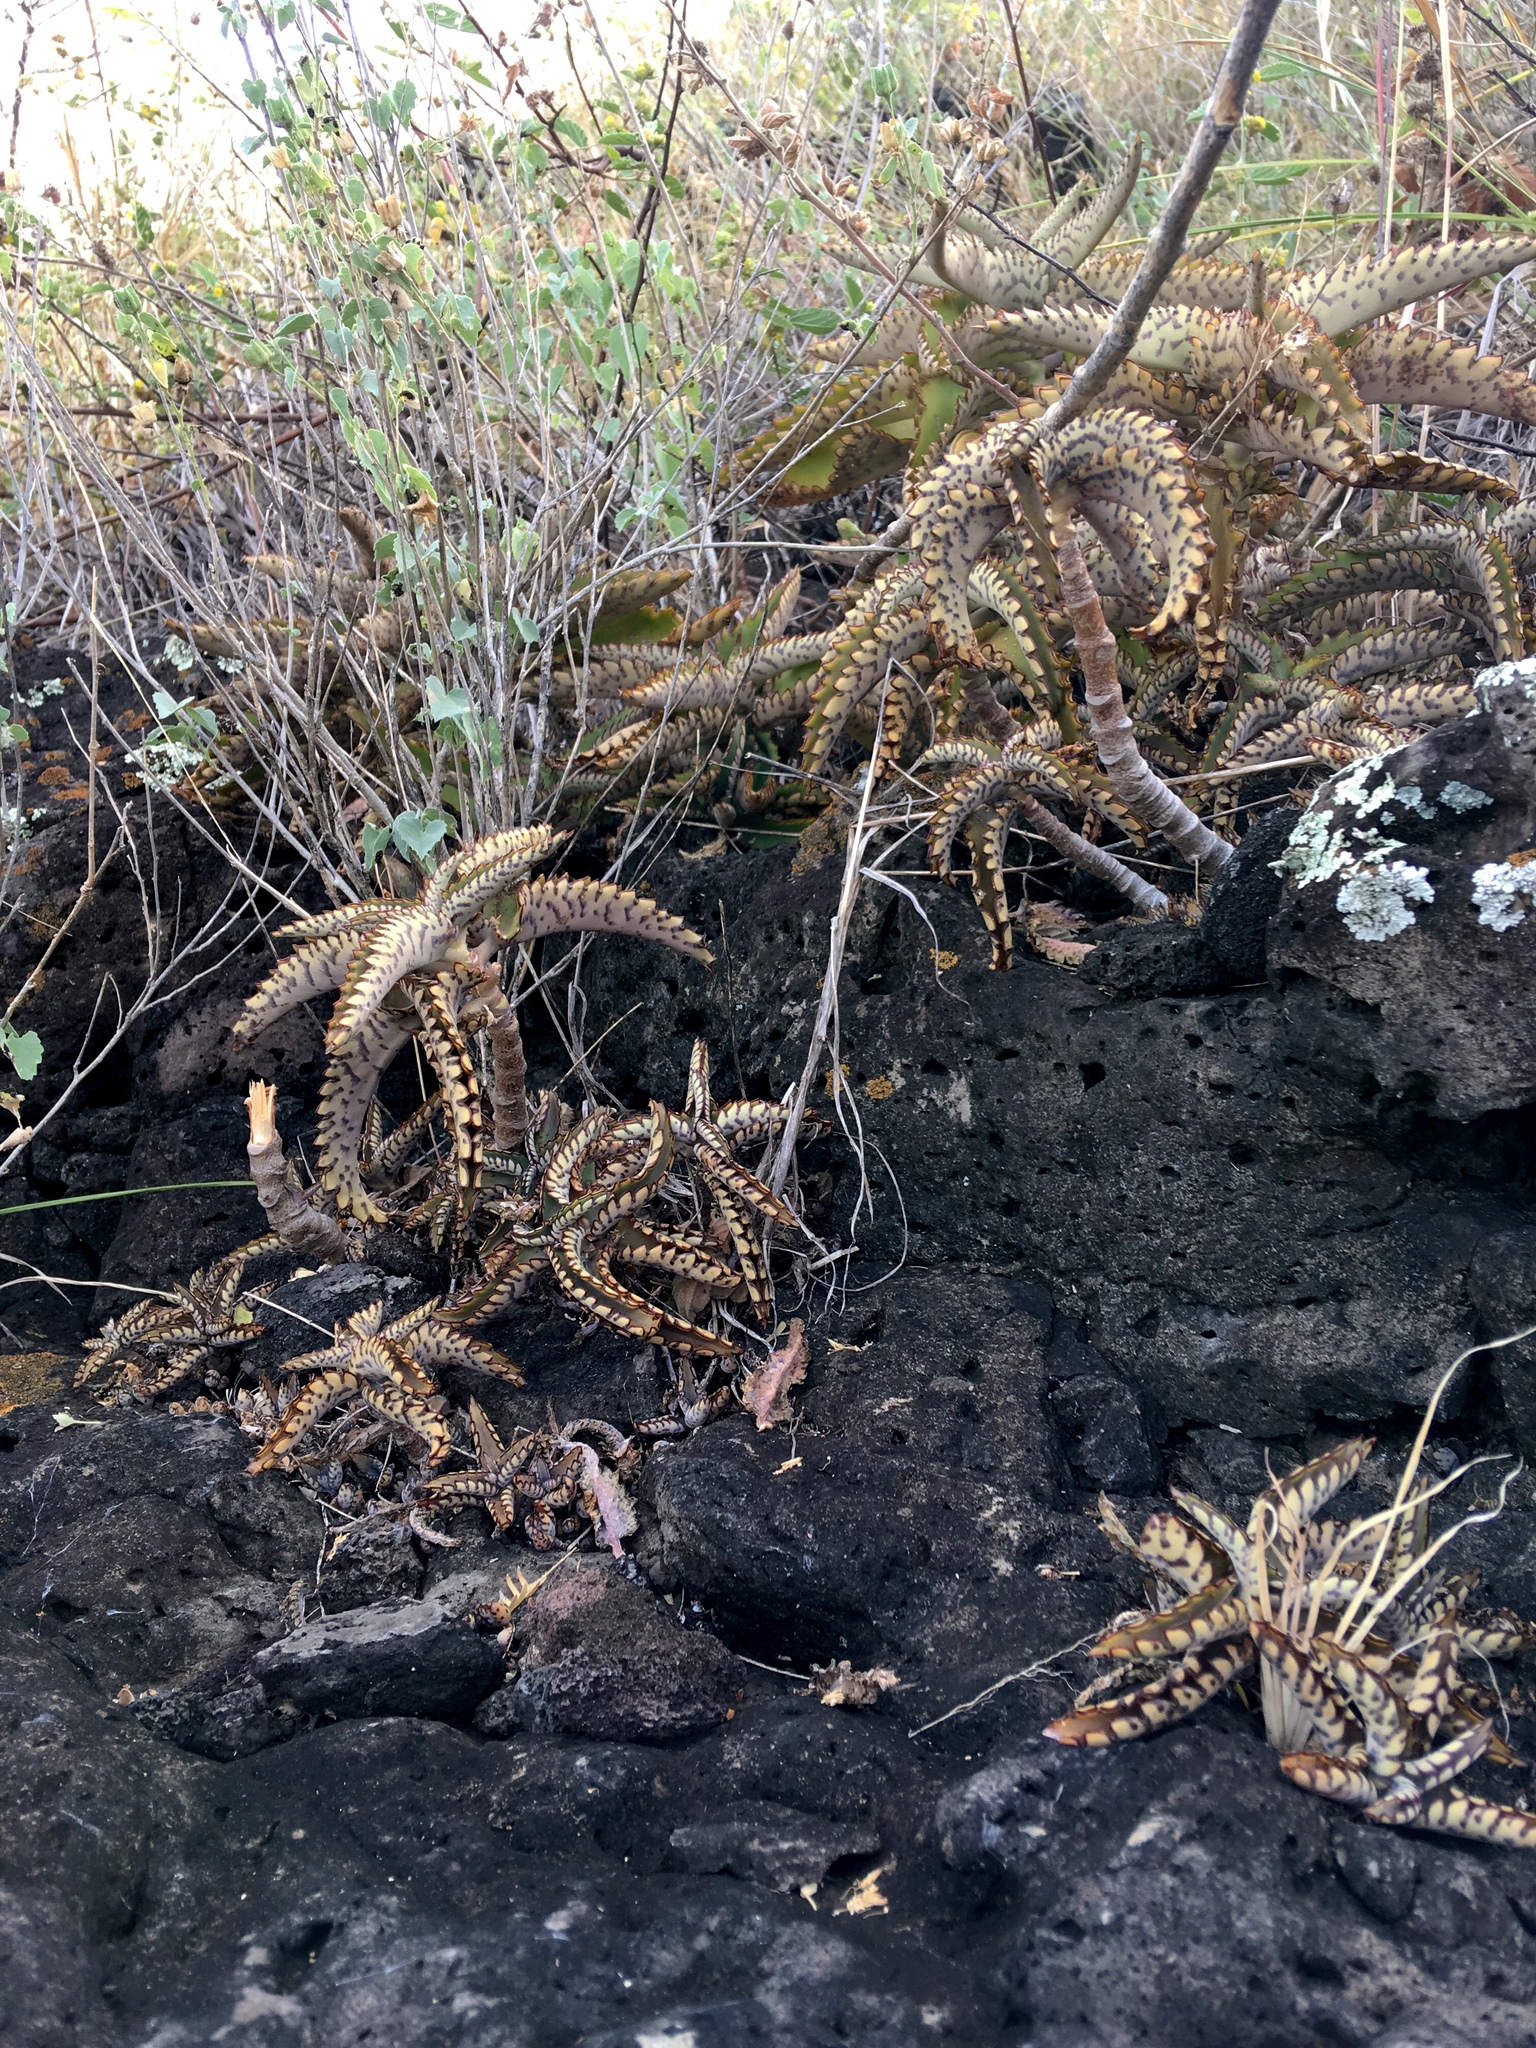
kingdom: Plantae
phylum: Tracheophyta
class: Magnoliopsida
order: Saxifragales
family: Crassulaceae
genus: Kalanchoe
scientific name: Kalanchoe daigremontiana
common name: Devil's backbone
